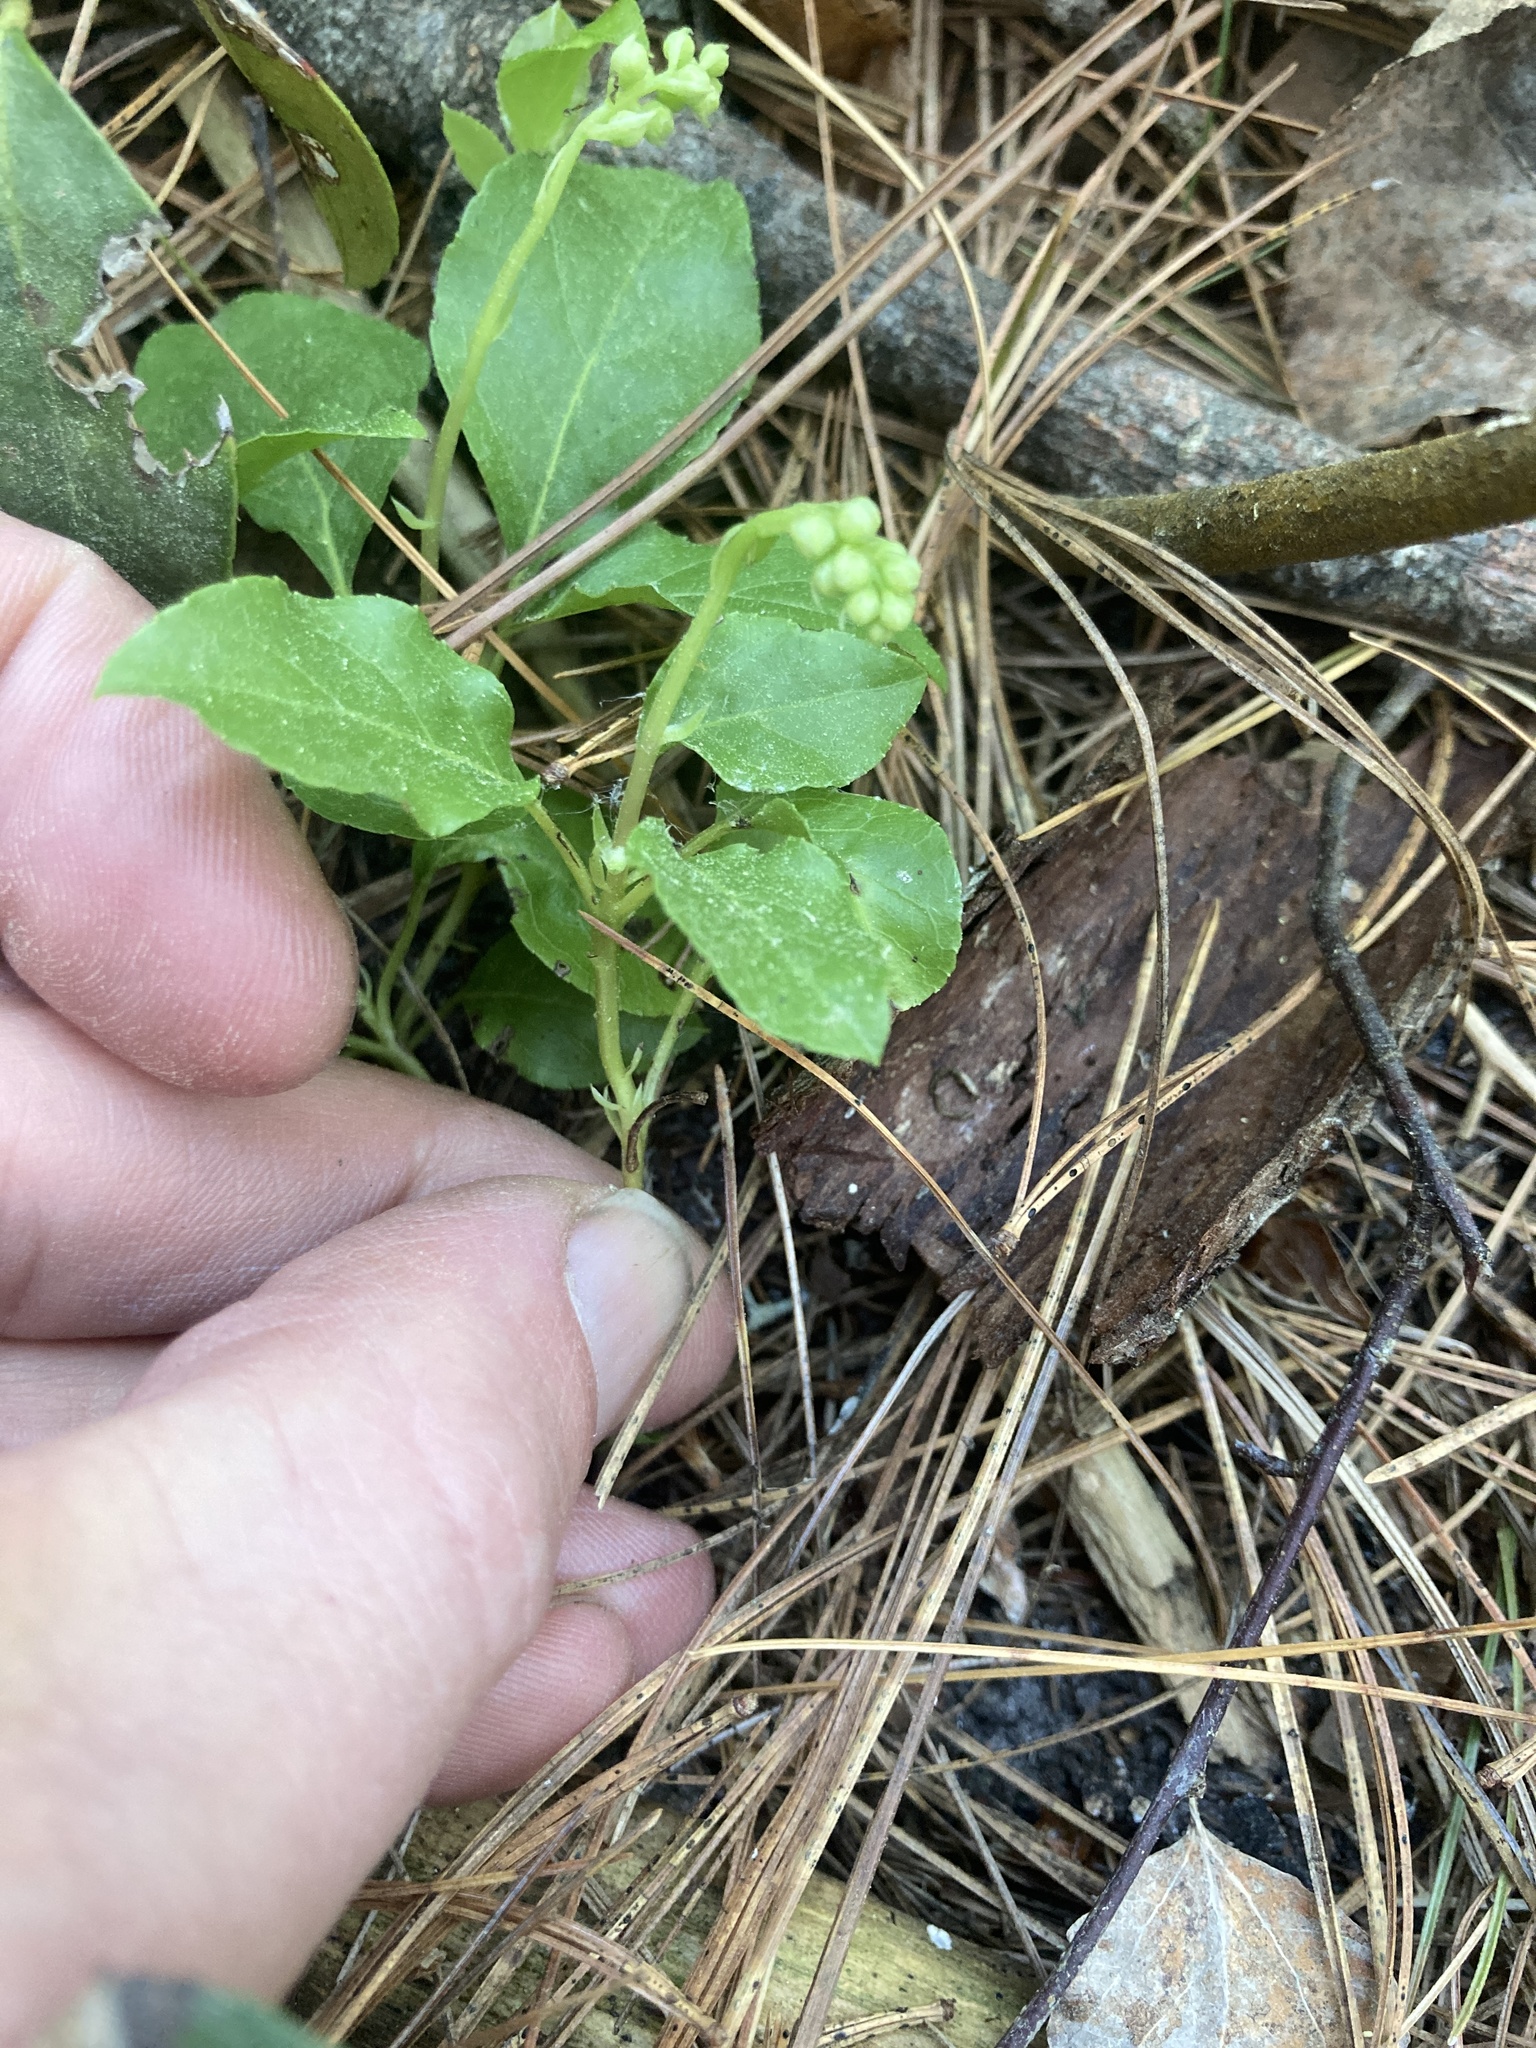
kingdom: Plantae
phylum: Tracheophyta
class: Magnoliopsida
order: Ericales
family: Ericaceae
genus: Orthilia
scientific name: Orthilia secunda
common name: One-sided orthilia
